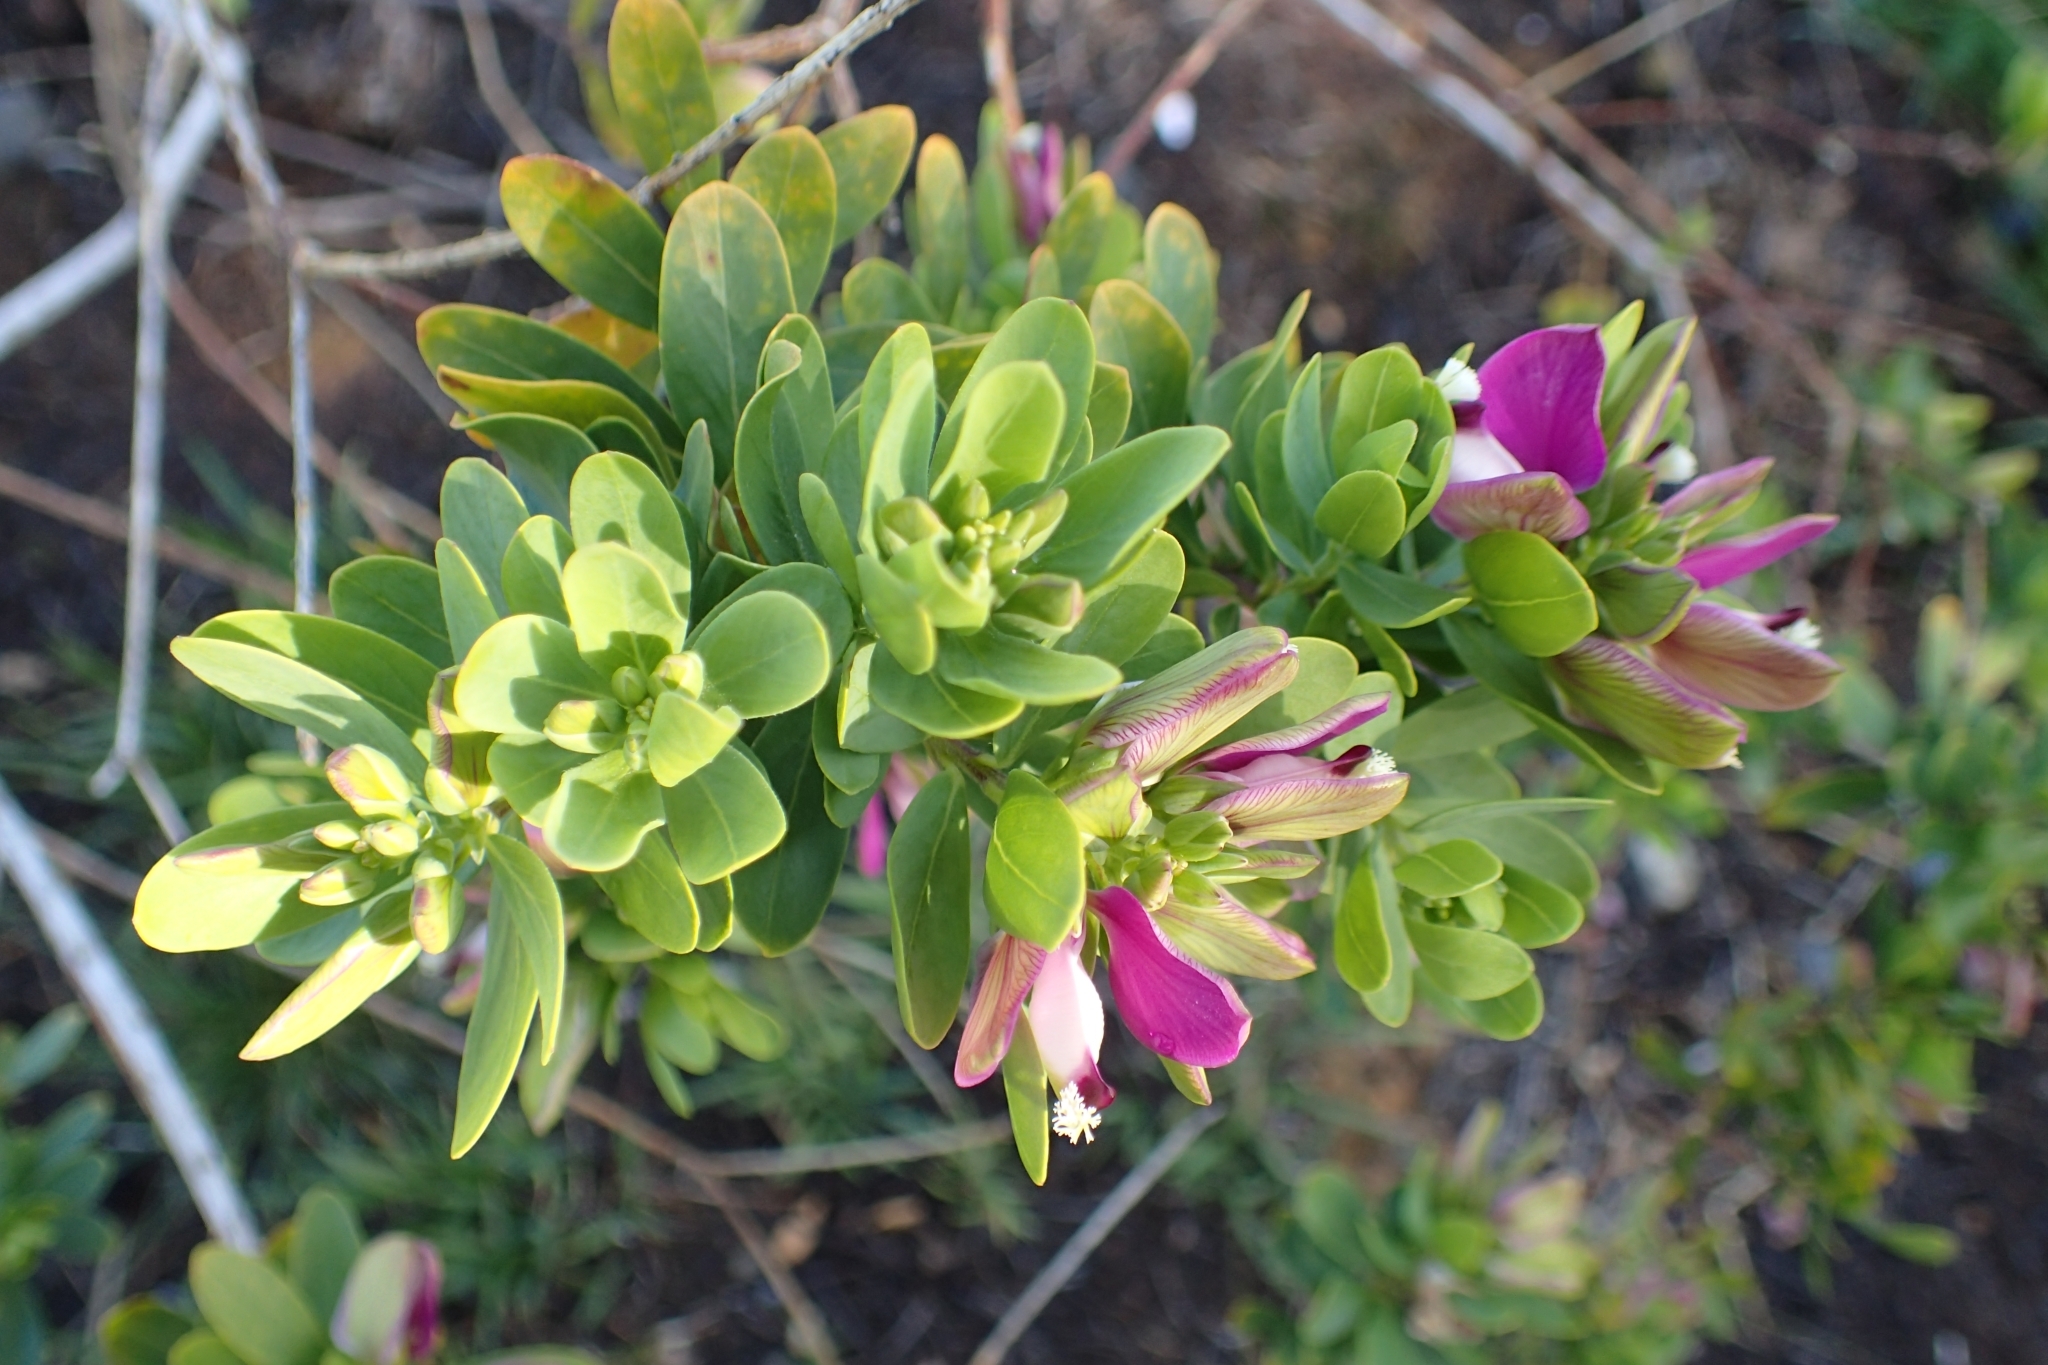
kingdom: Plantae
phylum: Tracheophyta
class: Magnoliopsida
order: Fabales
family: Polygalaceae
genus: Polygala
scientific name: Polygala myrtifolia
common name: Myrtle-leaf milkwort
